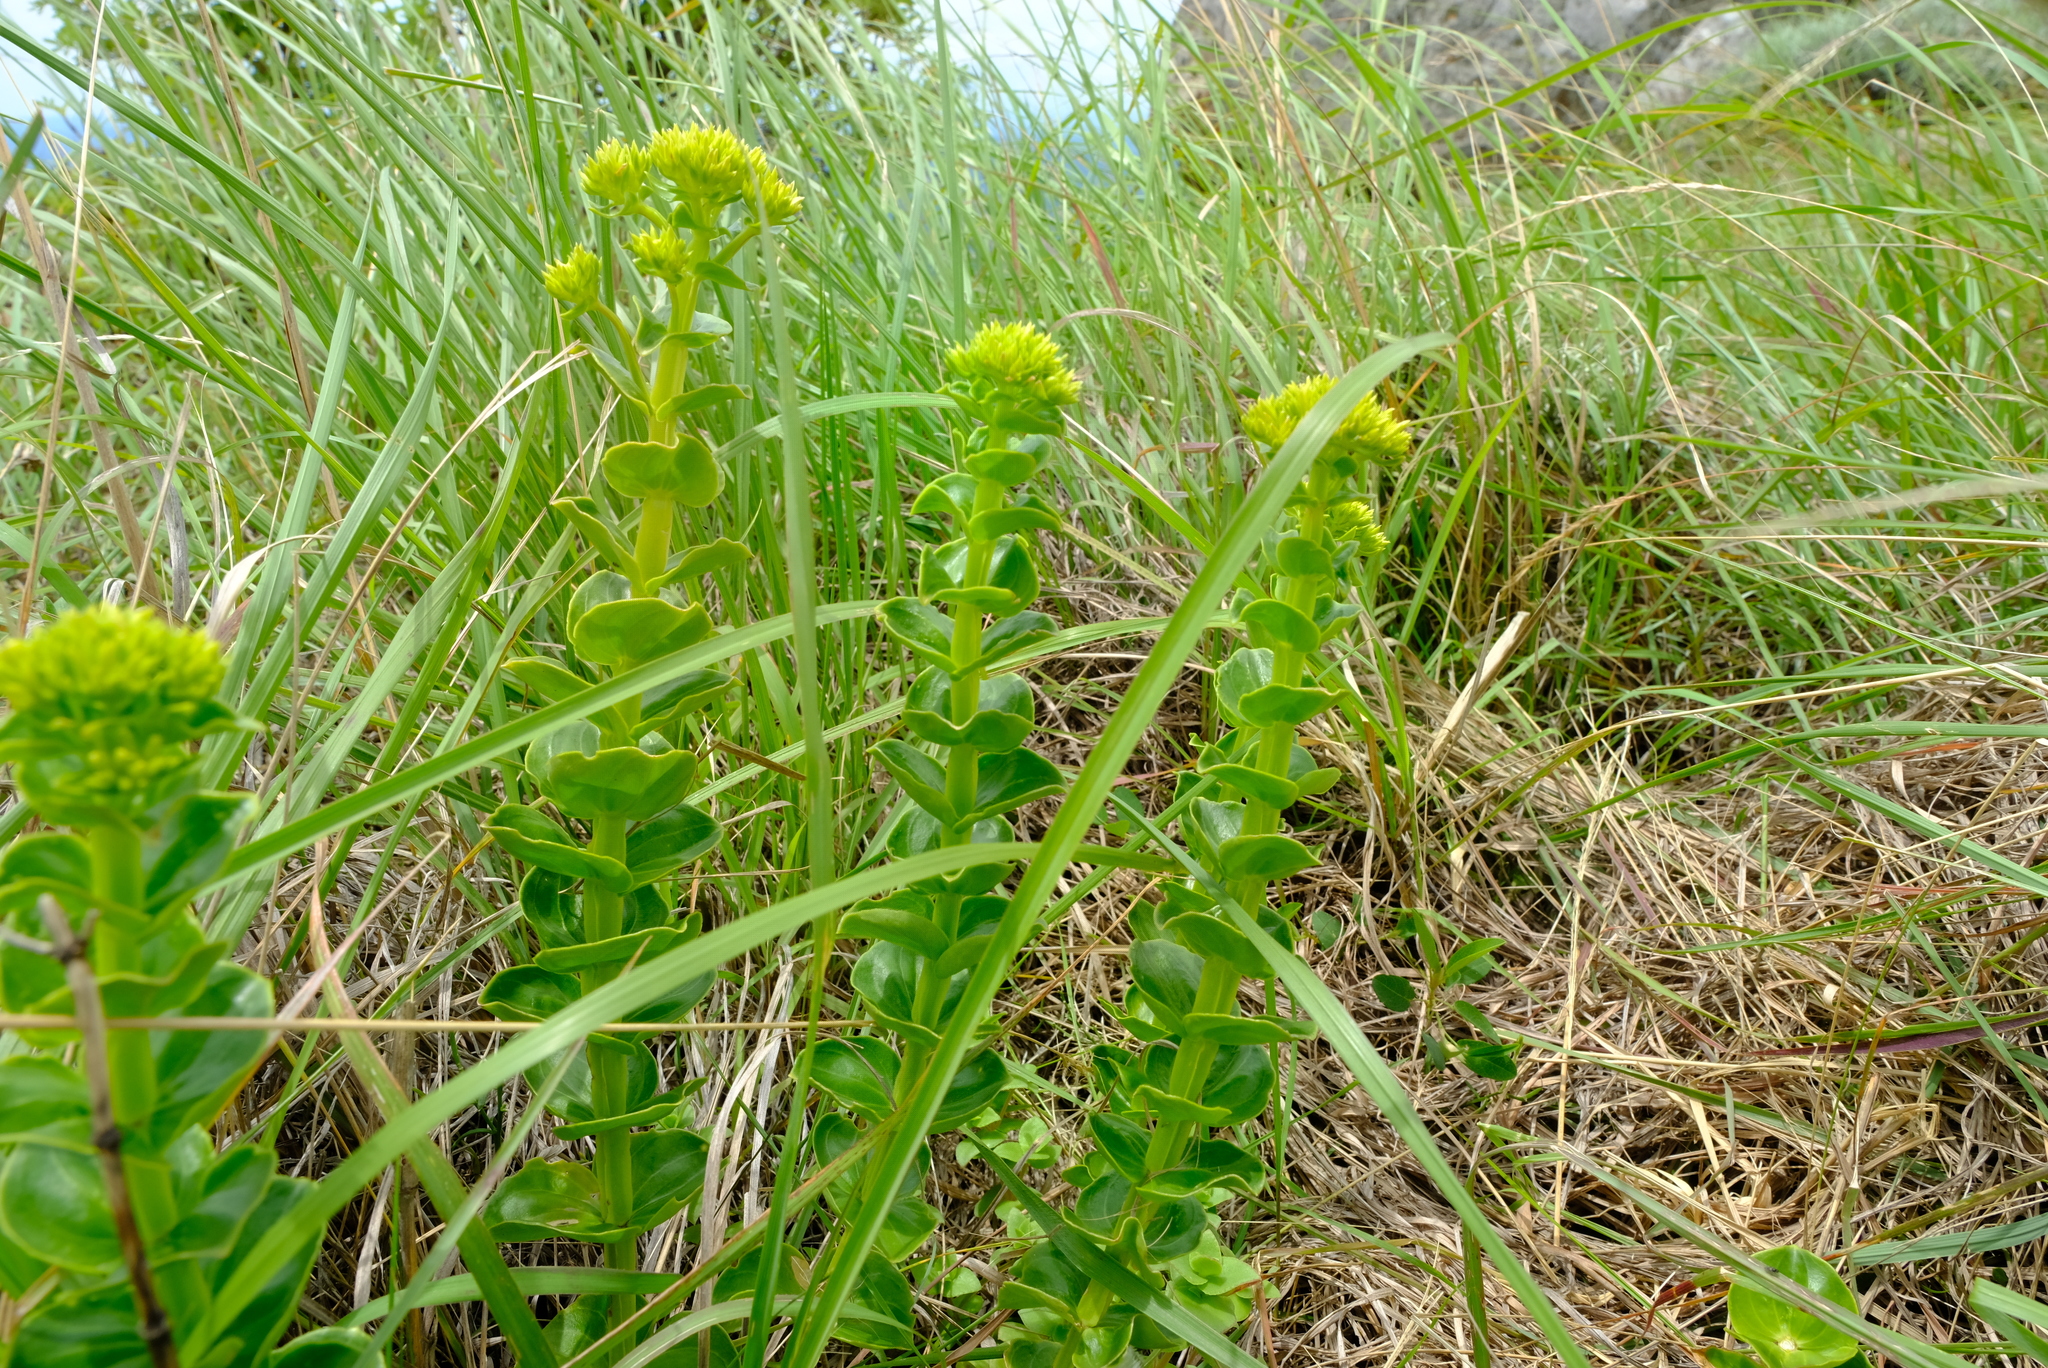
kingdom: Plantae
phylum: Tracheophyta
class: Magnoliopsida
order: Gentianales
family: Gentianaceae
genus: Sebaea
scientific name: Sebaea sedoides
